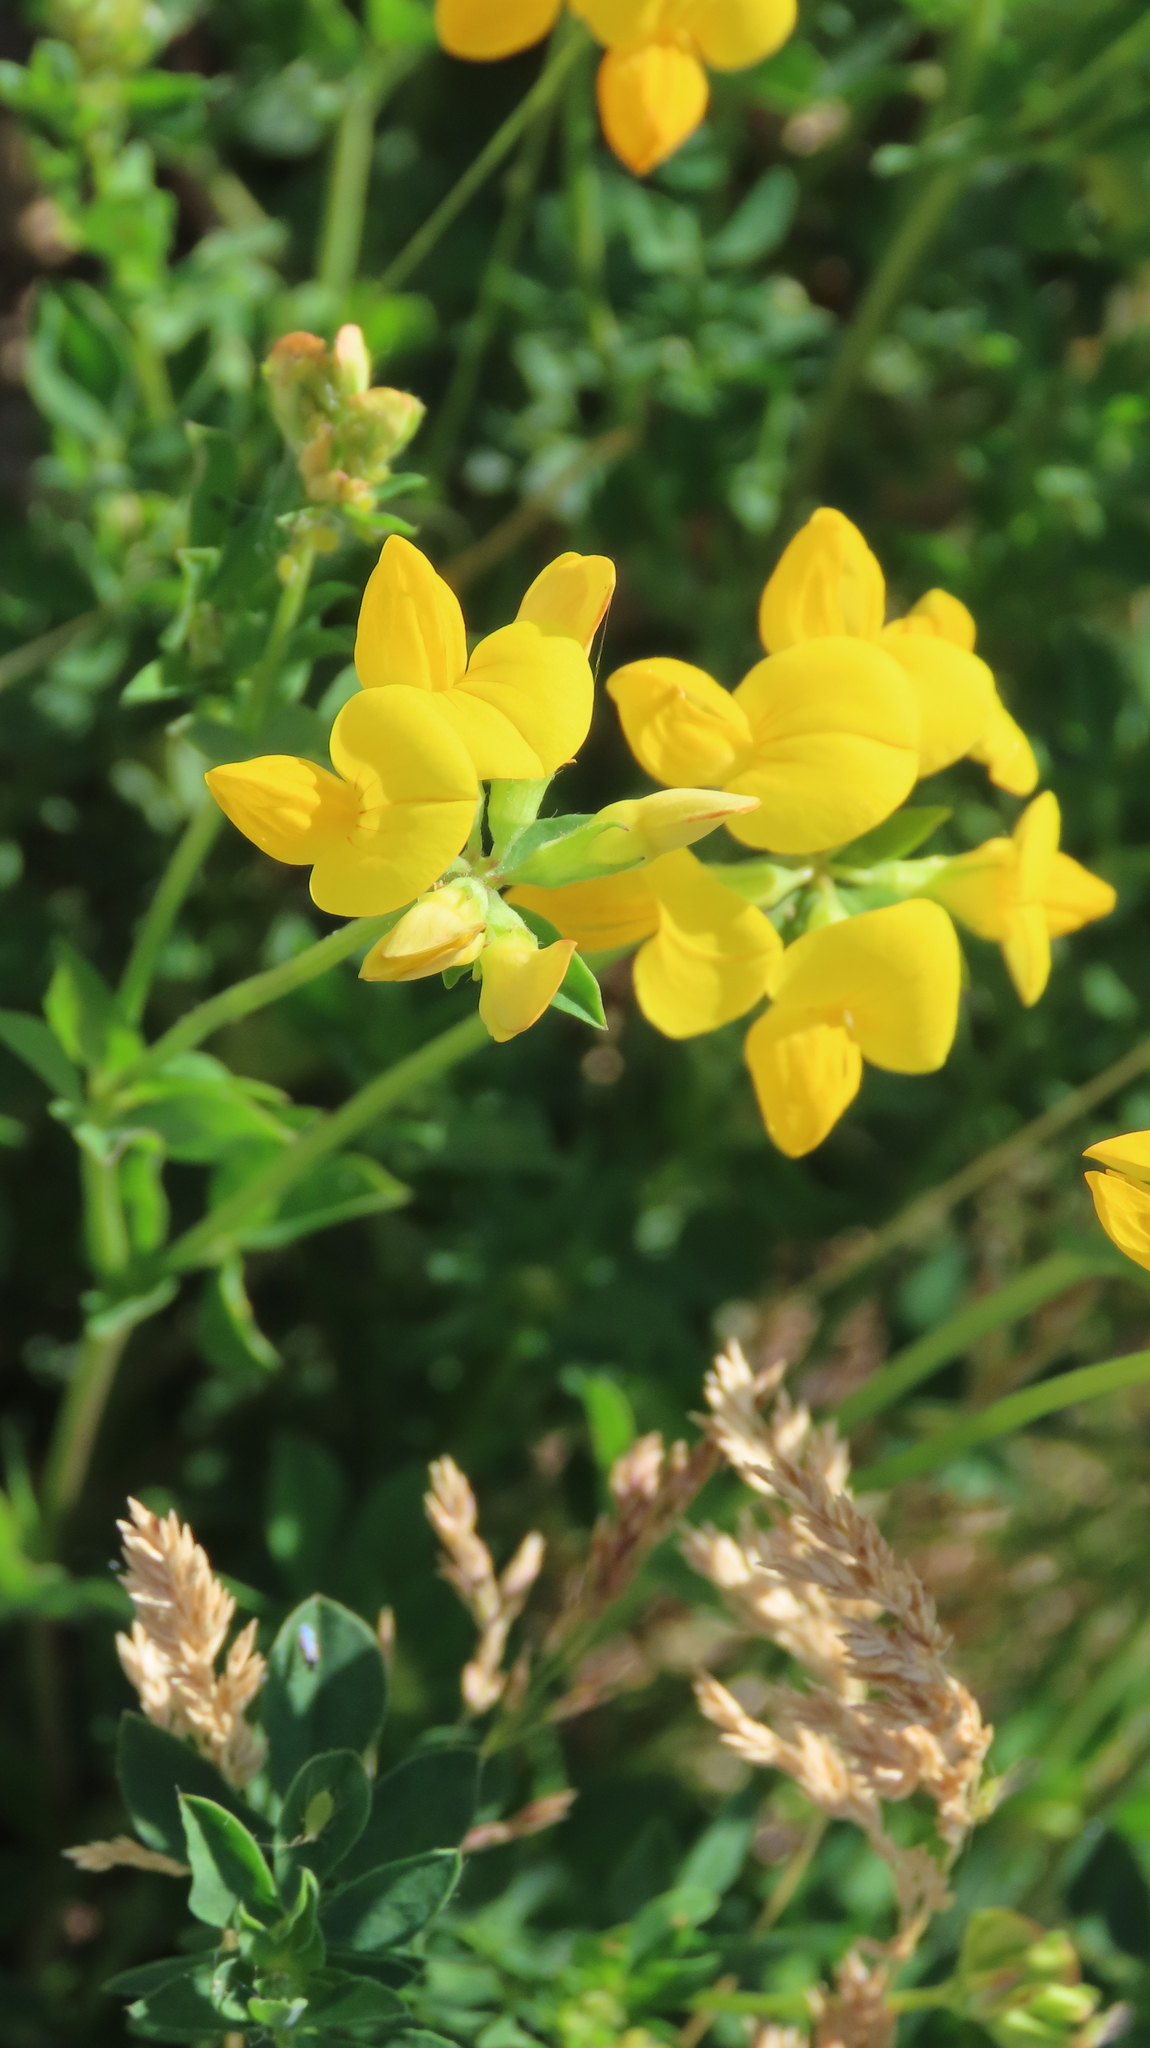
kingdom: Plantae
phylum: Tracheophyta
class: Magnoliopsida
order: Fabales
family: Fabaceae
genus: Lotus
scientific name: Lotus corniculatus
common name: Common bird's-foot-trefoil
